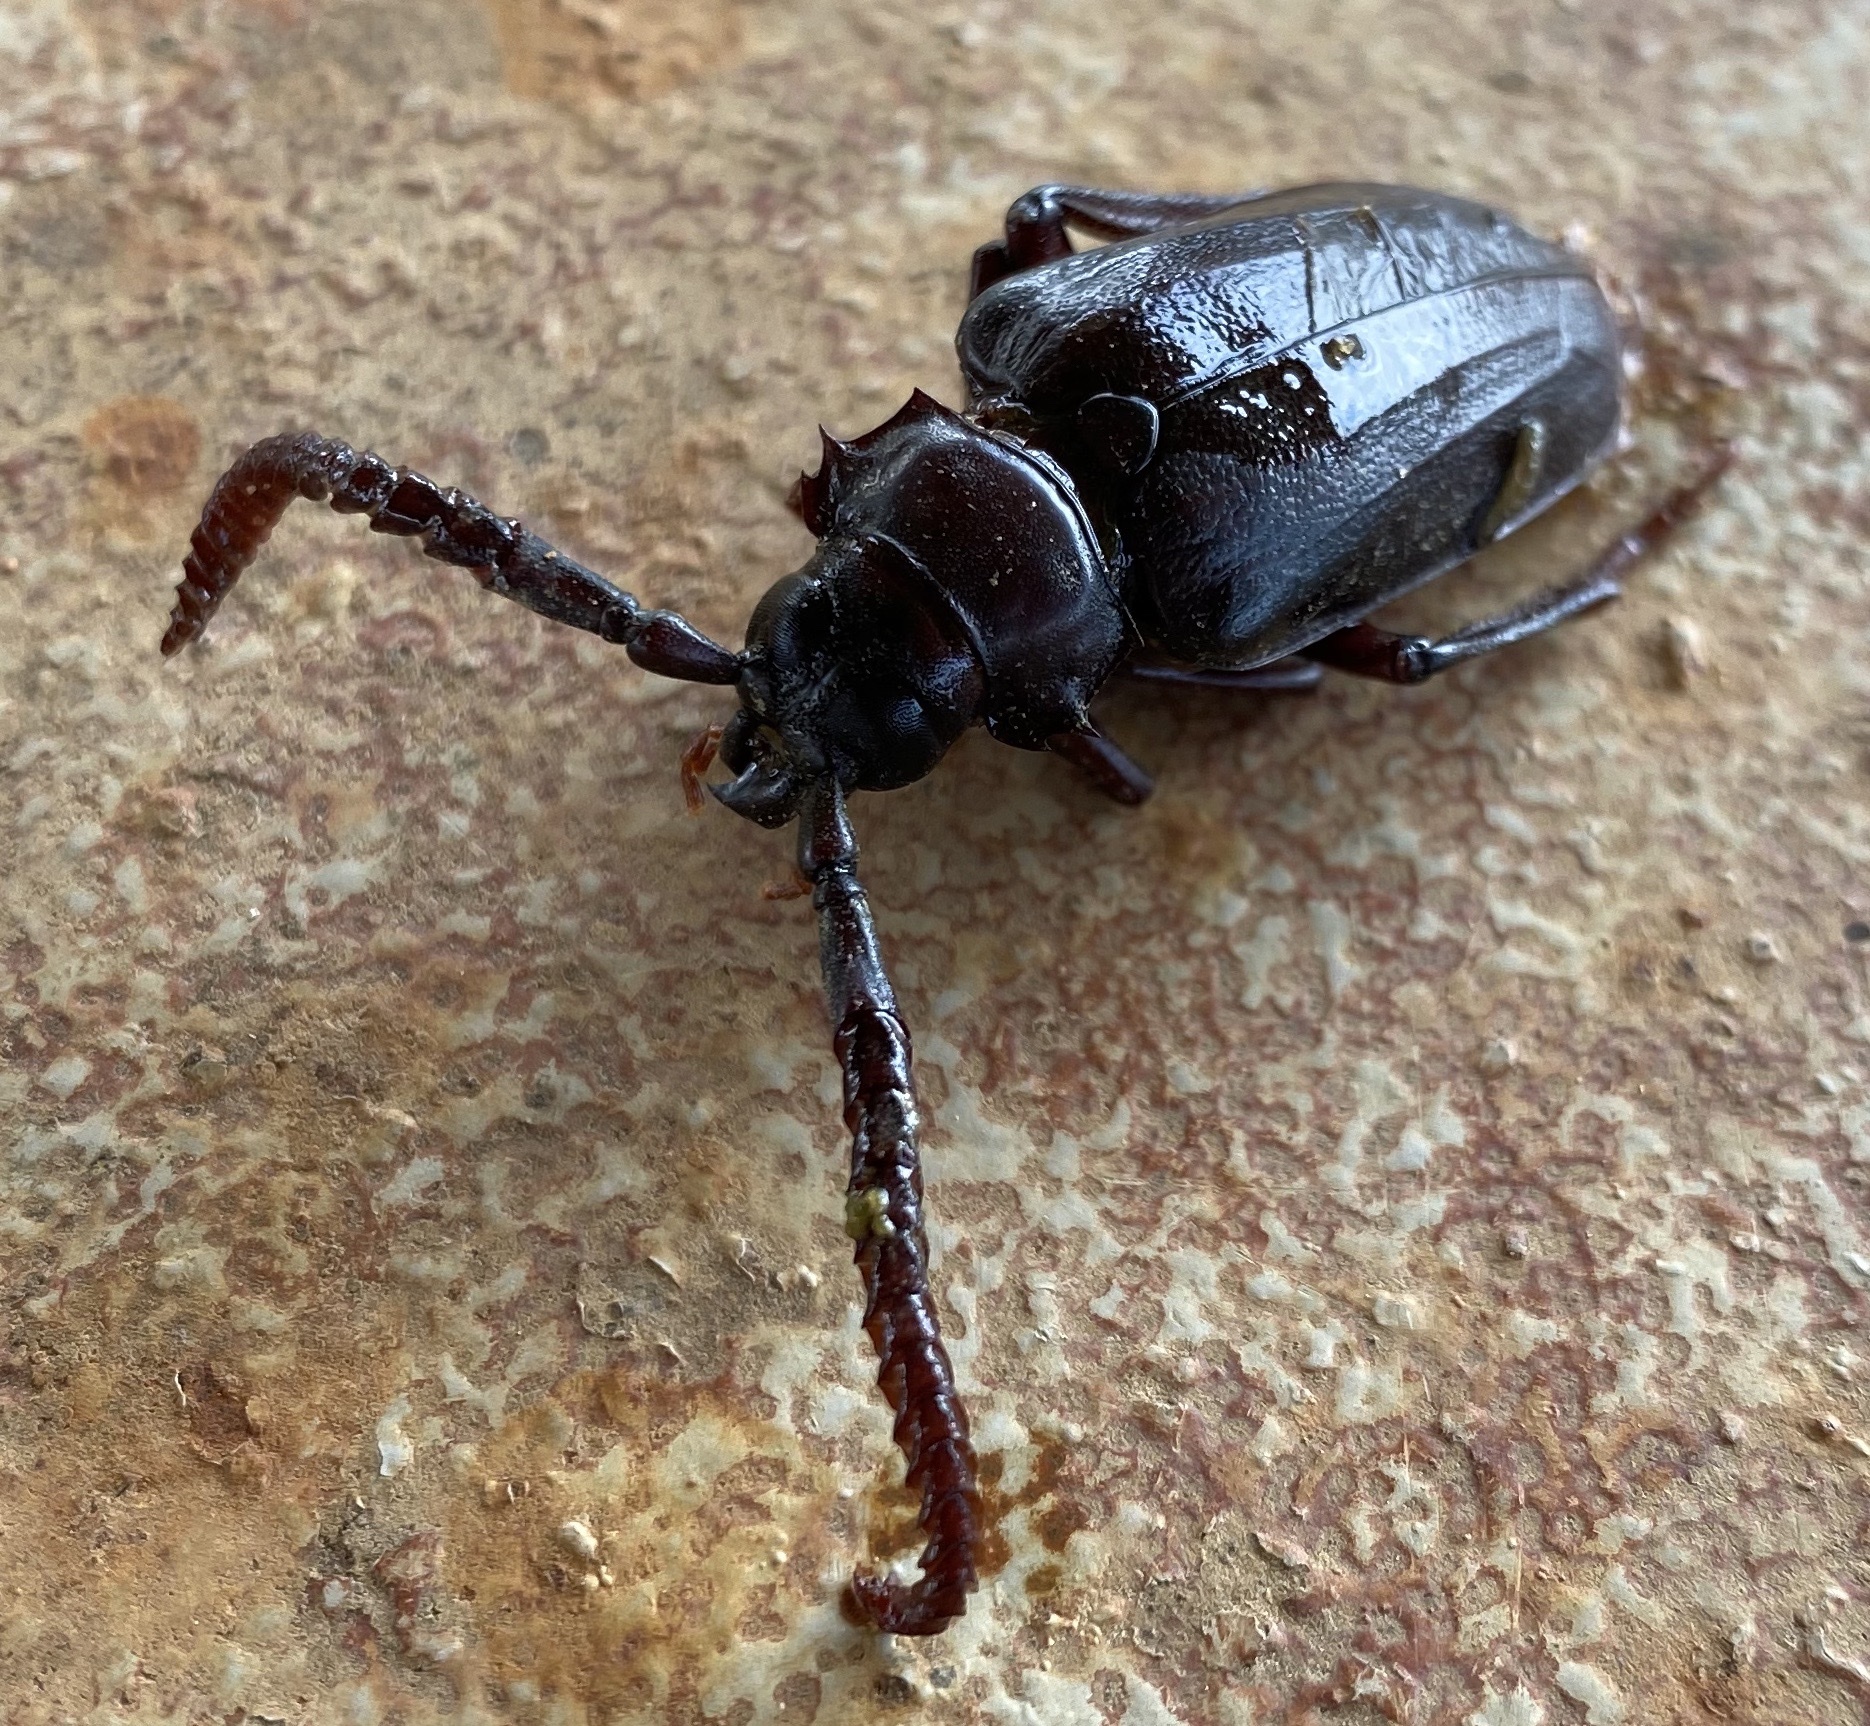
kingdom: Animalia
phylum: Arthropoda
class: Insecta
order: Coleoptera
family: Cerambycidae
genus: Prionus
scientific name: Prionus imbricornis
